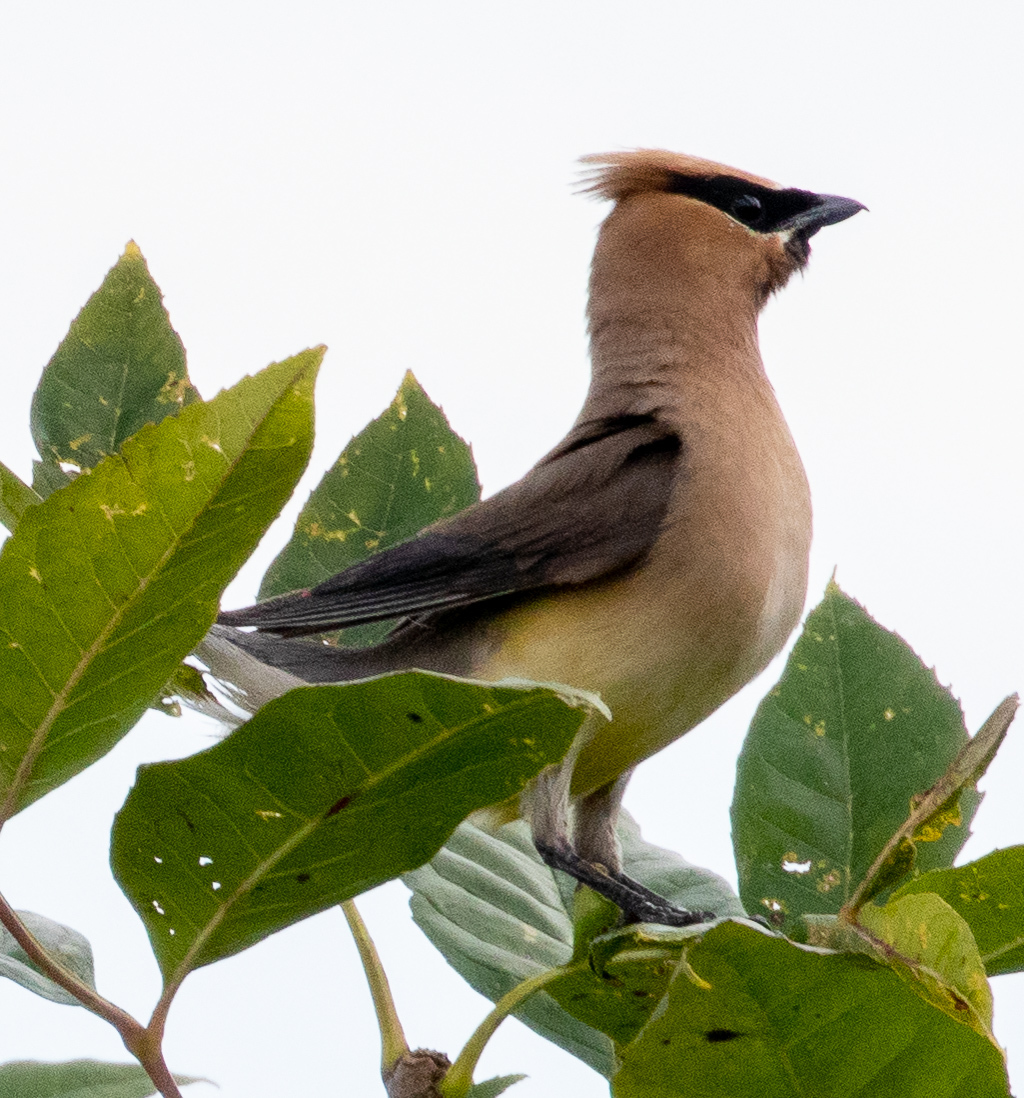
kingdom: Animalia
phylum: Chordata
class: Aves
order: Passeriformes
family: Bombycillidae
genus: Bombycilla
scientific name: Bombycilla cedrorum
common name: Cedar waxwing
